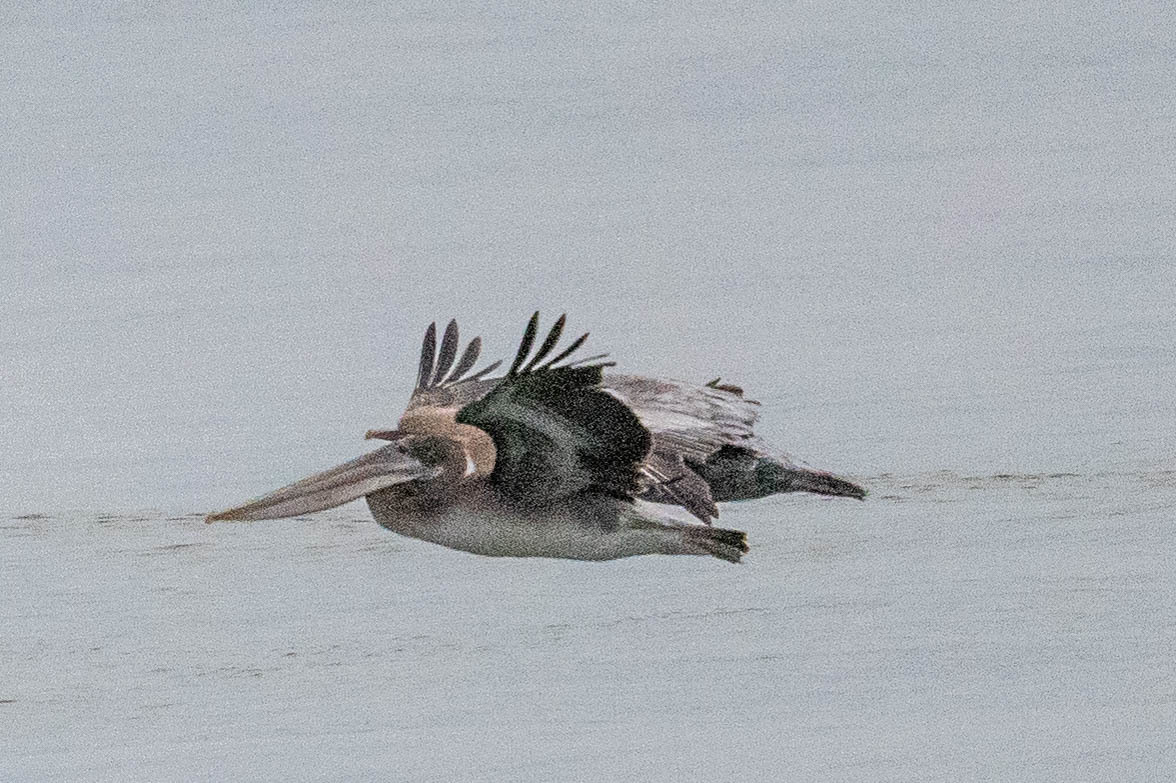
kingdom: Animalia
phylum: Chordata
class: Aves
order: Pelecaniformes
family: Pelecanidae
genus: Pelecanus
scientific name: Pelecanus occidentalis
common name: Brown pelican
